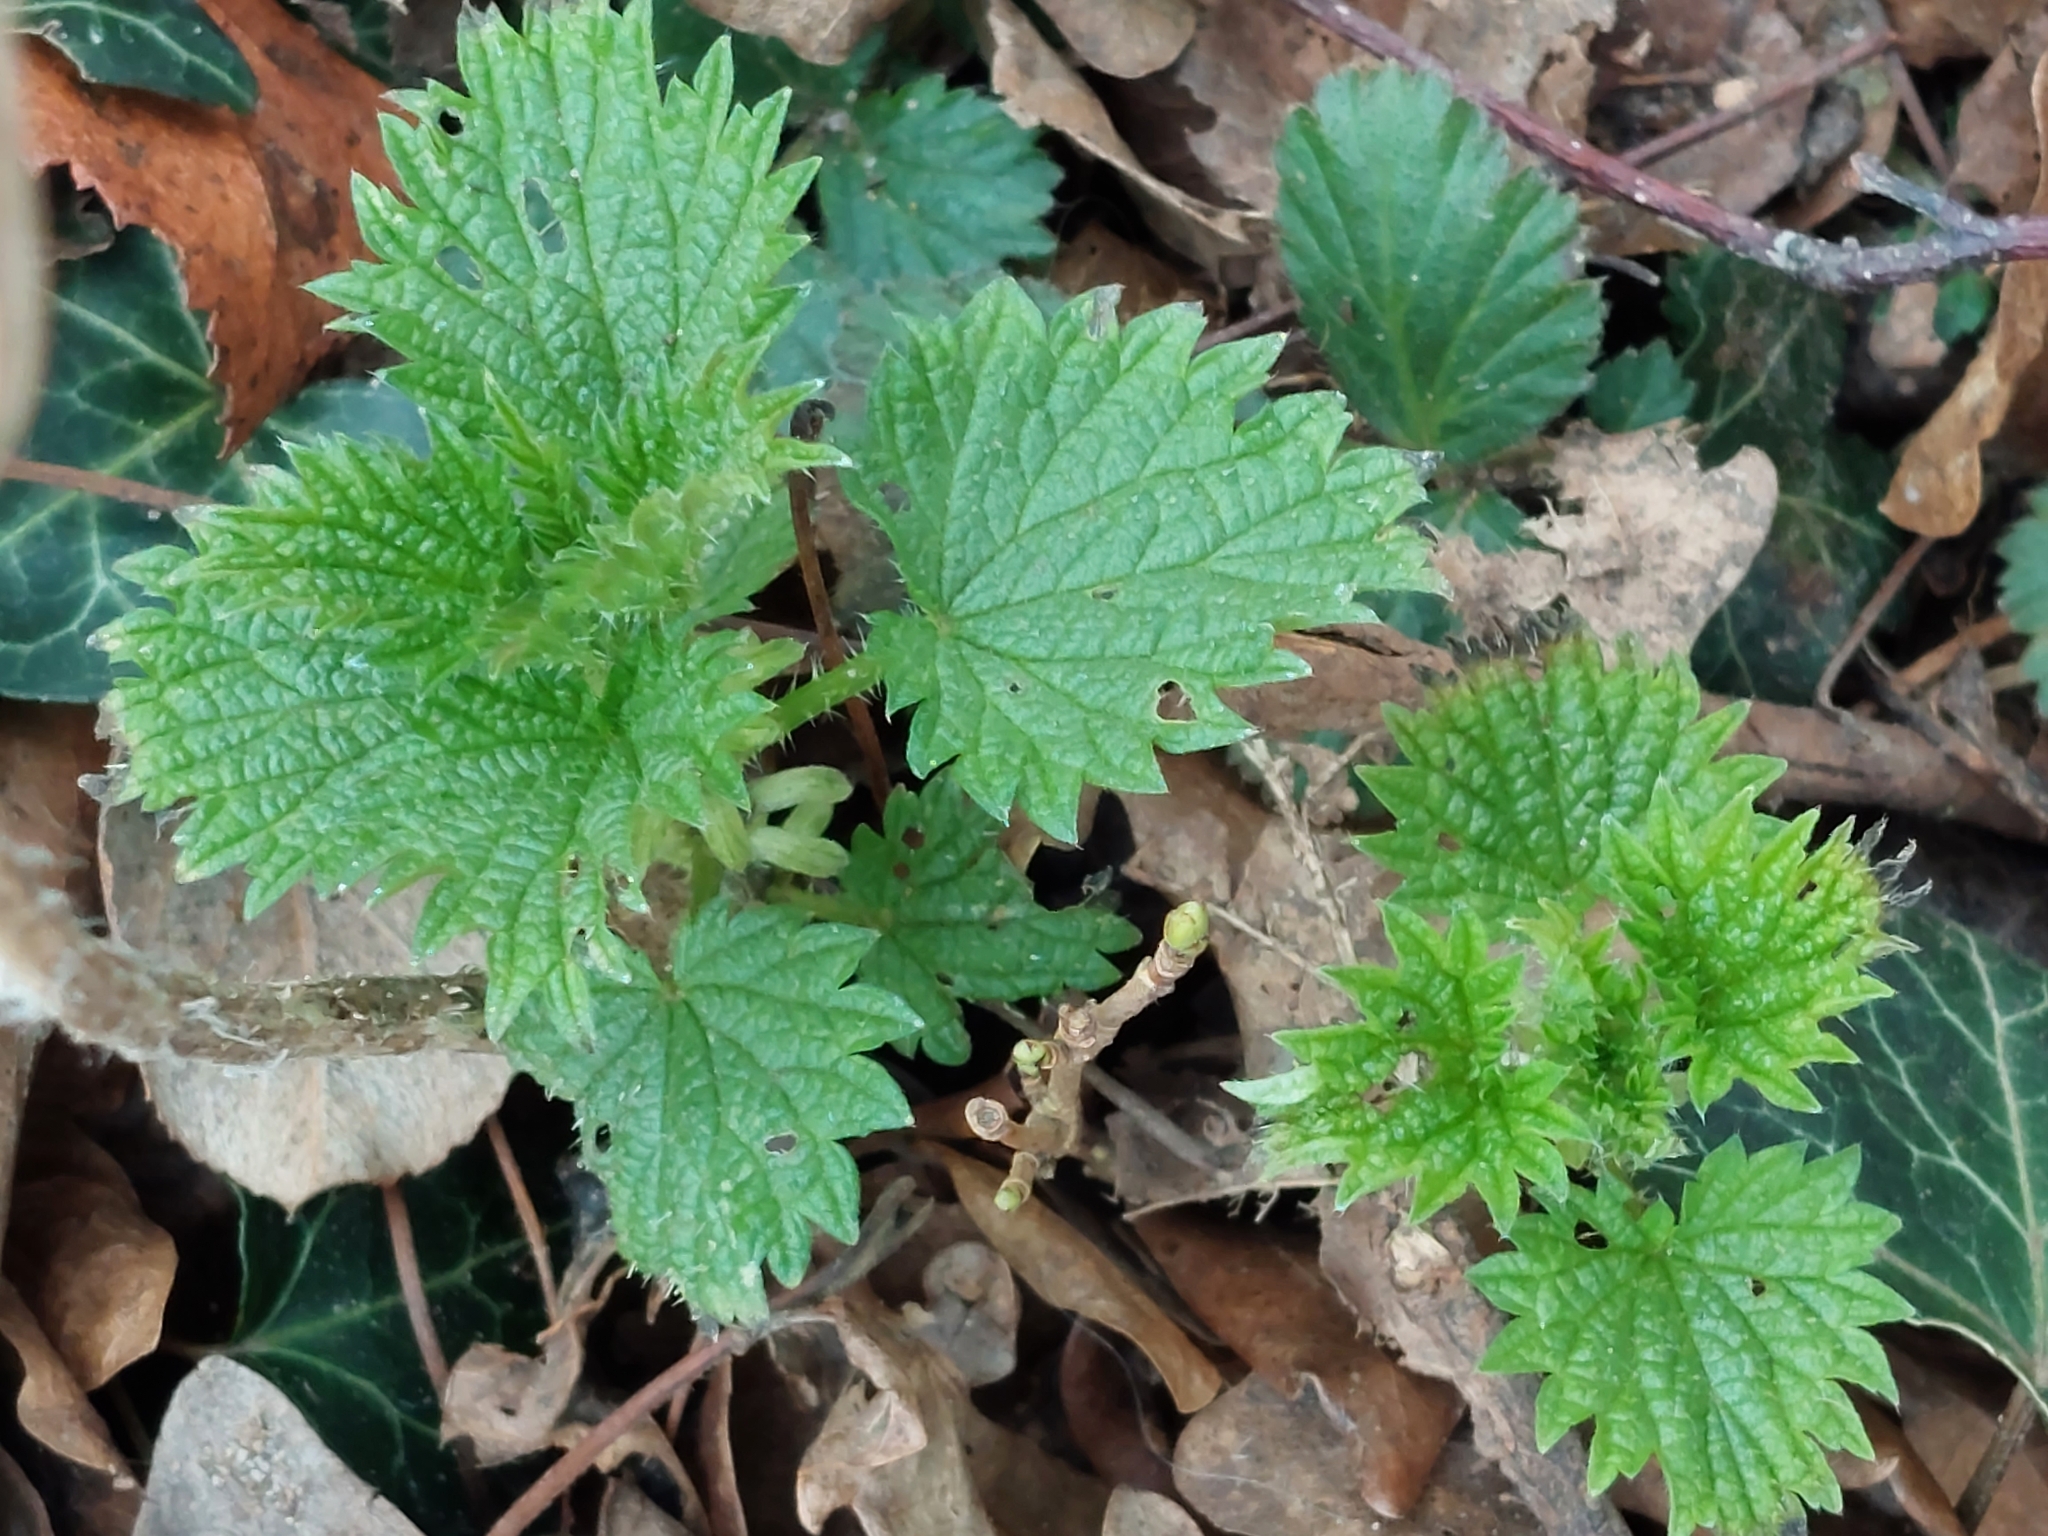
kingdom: Plantae
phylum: Tracheophyta
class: Magnoliopsida
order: Rosales
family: Urticaceae
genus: Urtica
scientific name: Urtica dioica
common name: Common nettle
